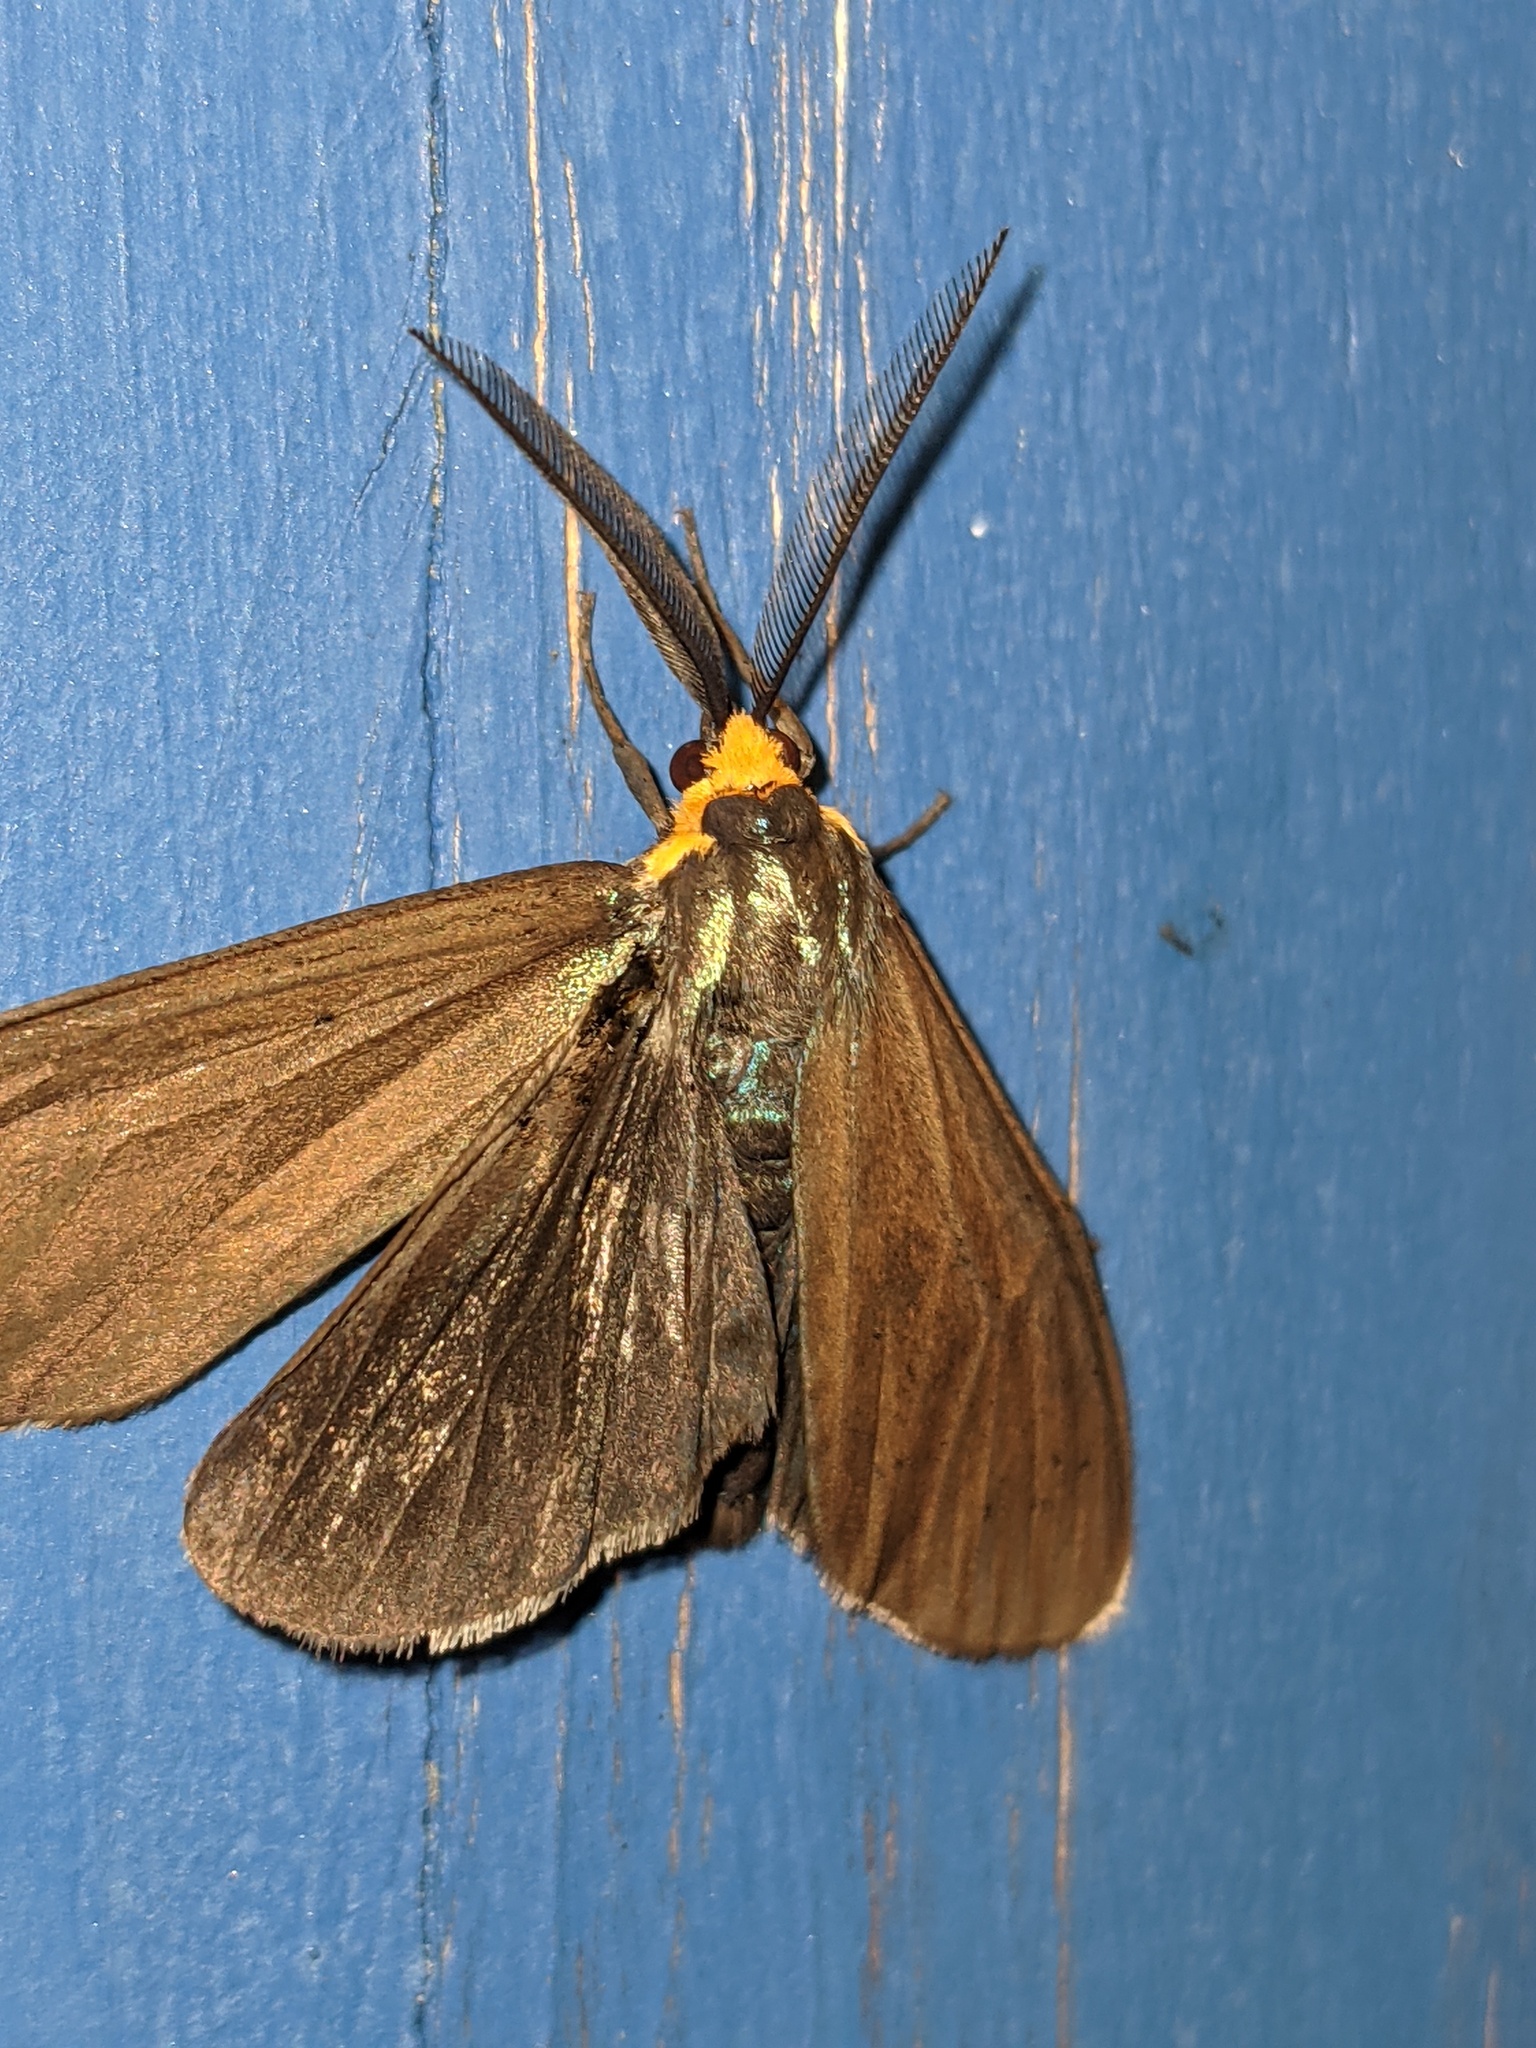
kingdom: Animalia
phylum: Arthropoda
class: Insecta
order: Lepidoptera
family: Erebidae
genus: Ctenucha
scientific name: Ctenucha virginica
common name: Virginia ctenucha moth
